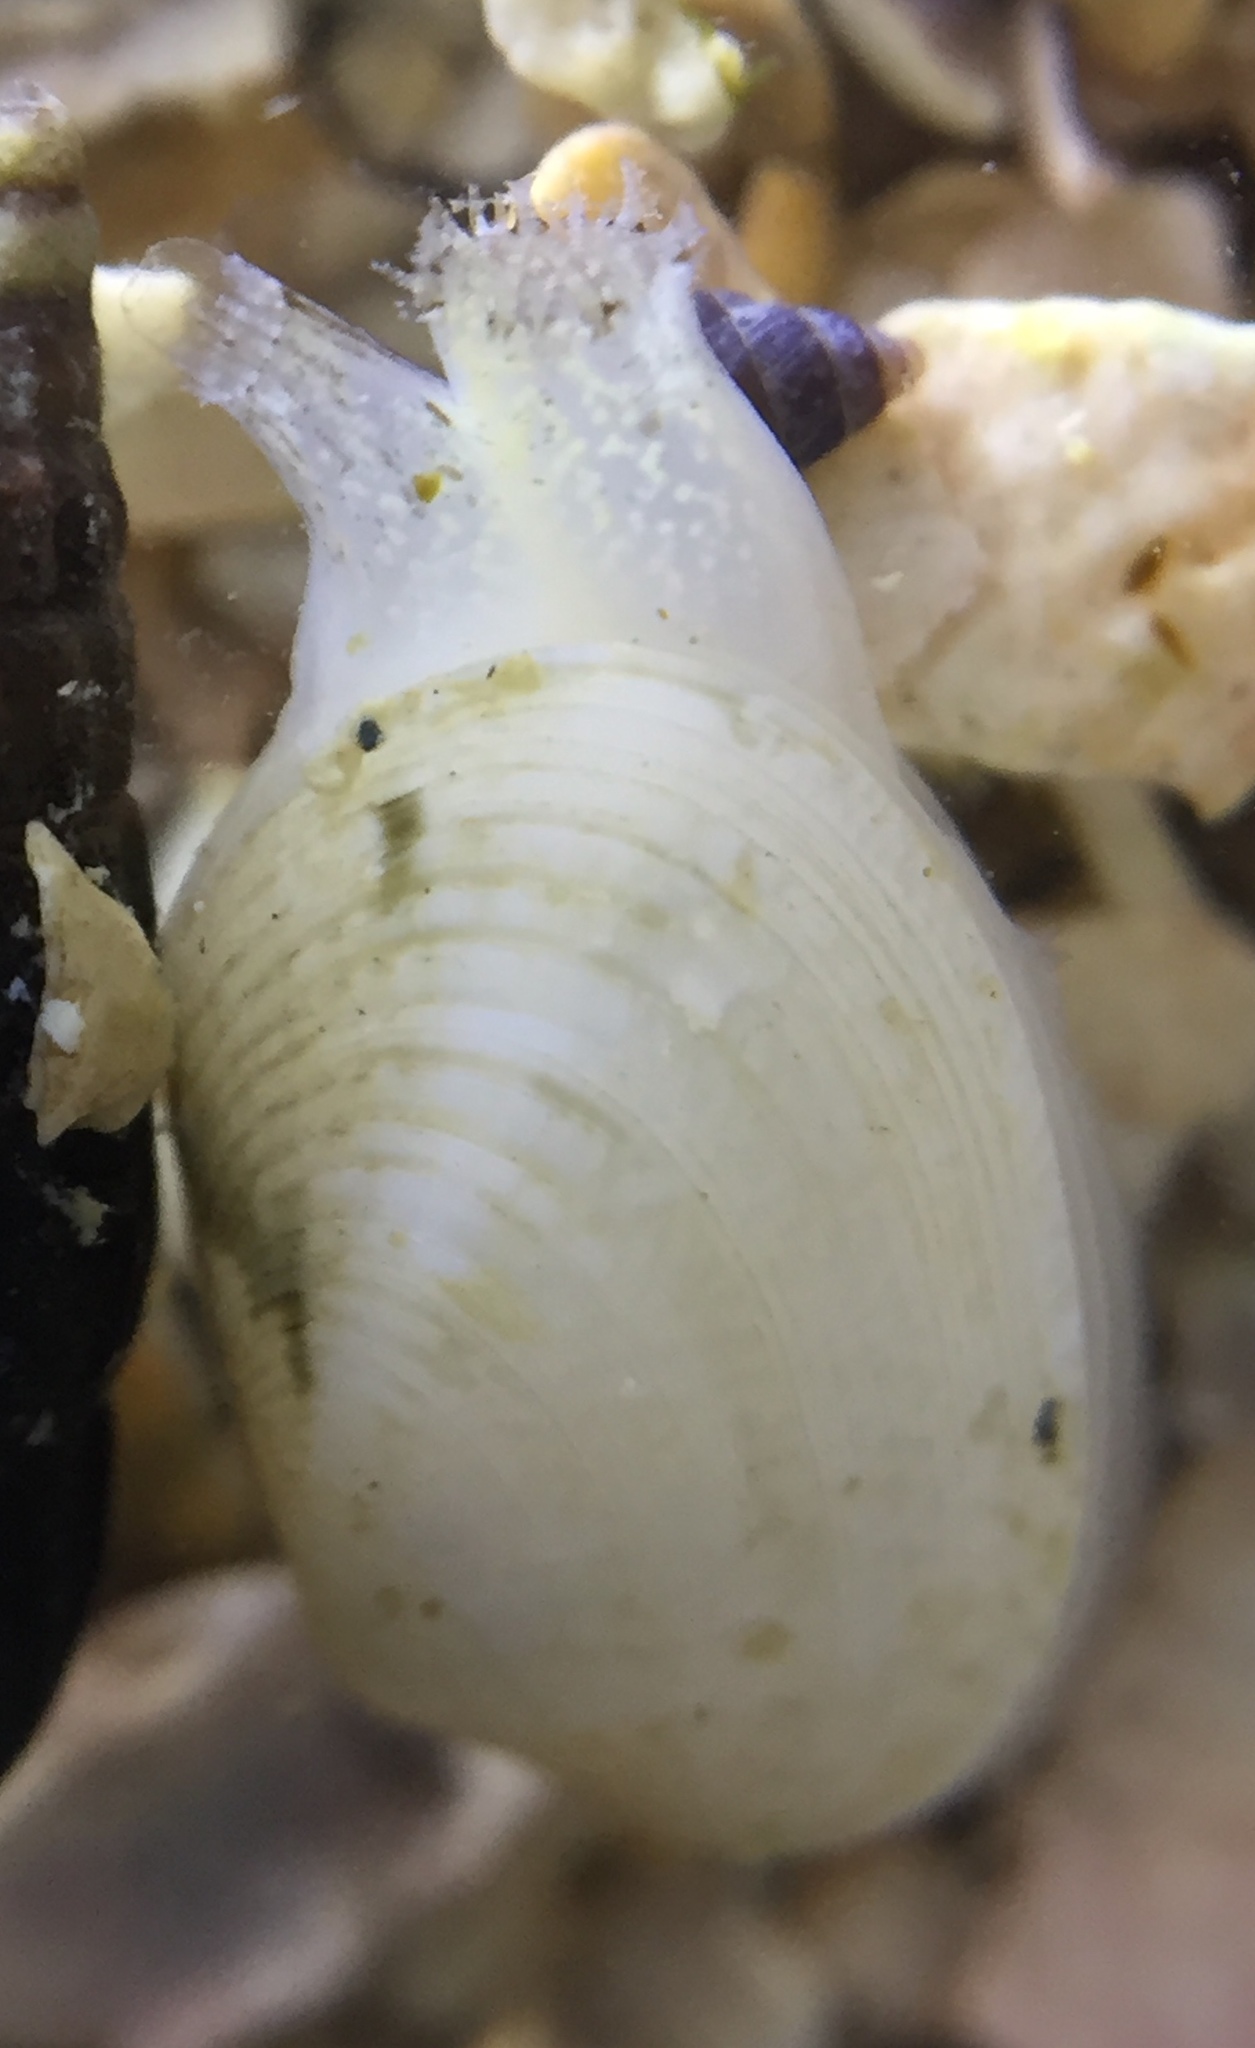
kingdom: Animalia
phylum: Mollusca
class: Bivalvia
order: Venerida
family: Veneridae
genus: Venerupis
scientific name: Venerupis largillierti
